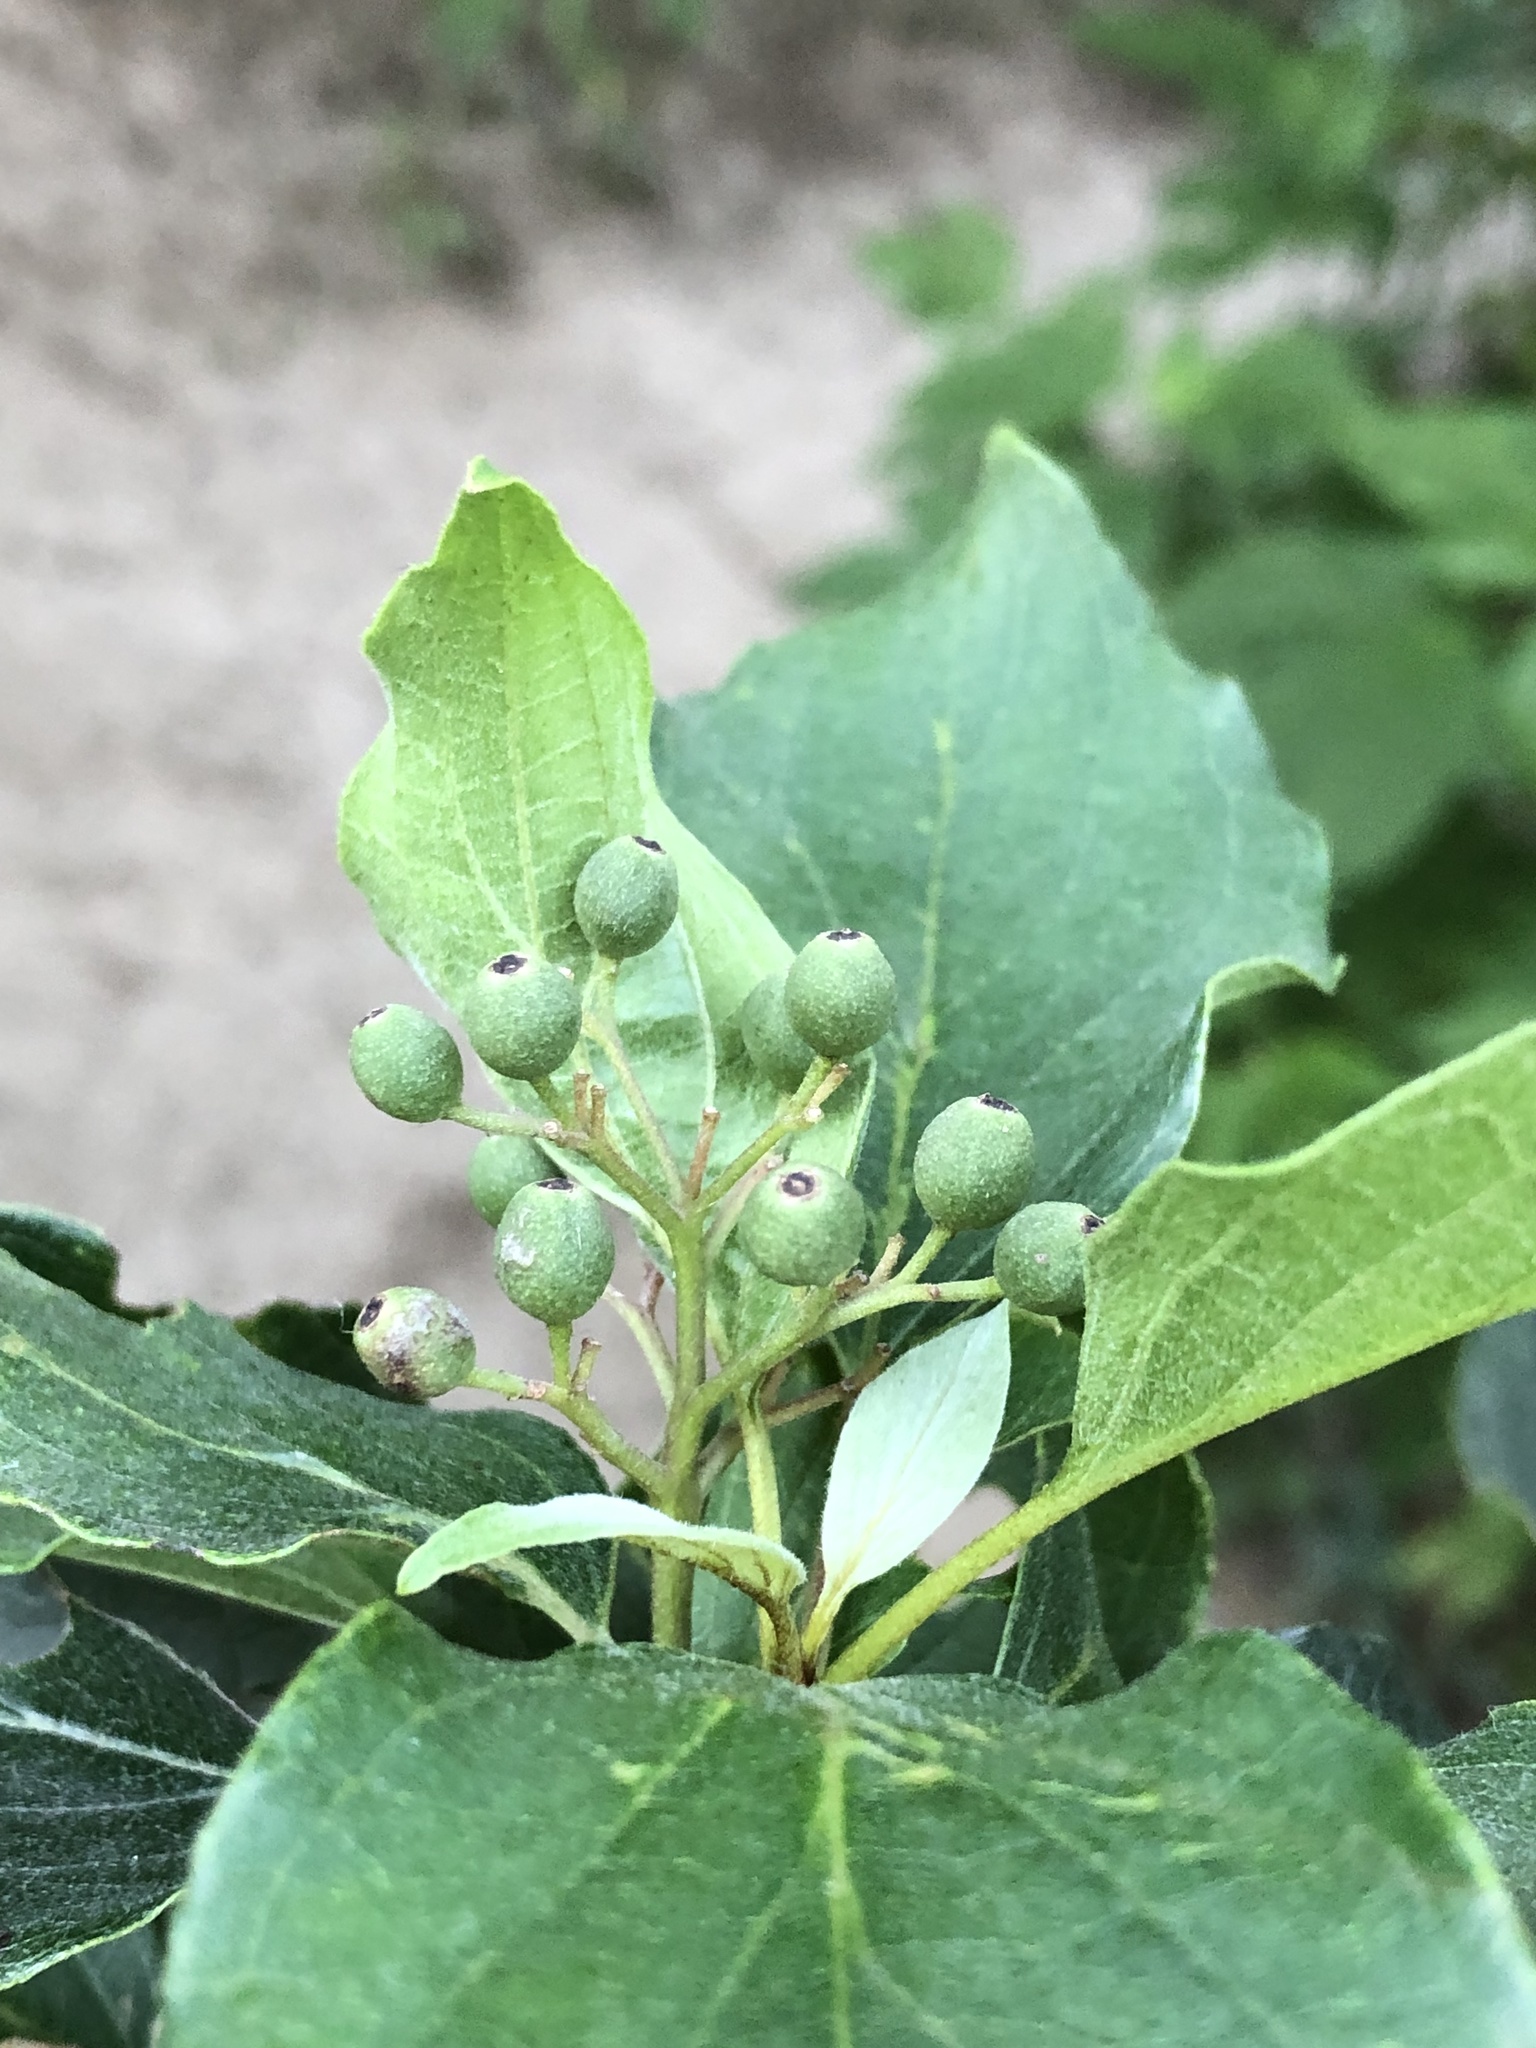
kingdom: Plantae
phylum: Tracheophyta
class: Magnoliopsida
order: Cornales
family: Cornaceae
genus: Cornus
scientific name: Cornus drummondii
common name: Rough-leaf dogwood
